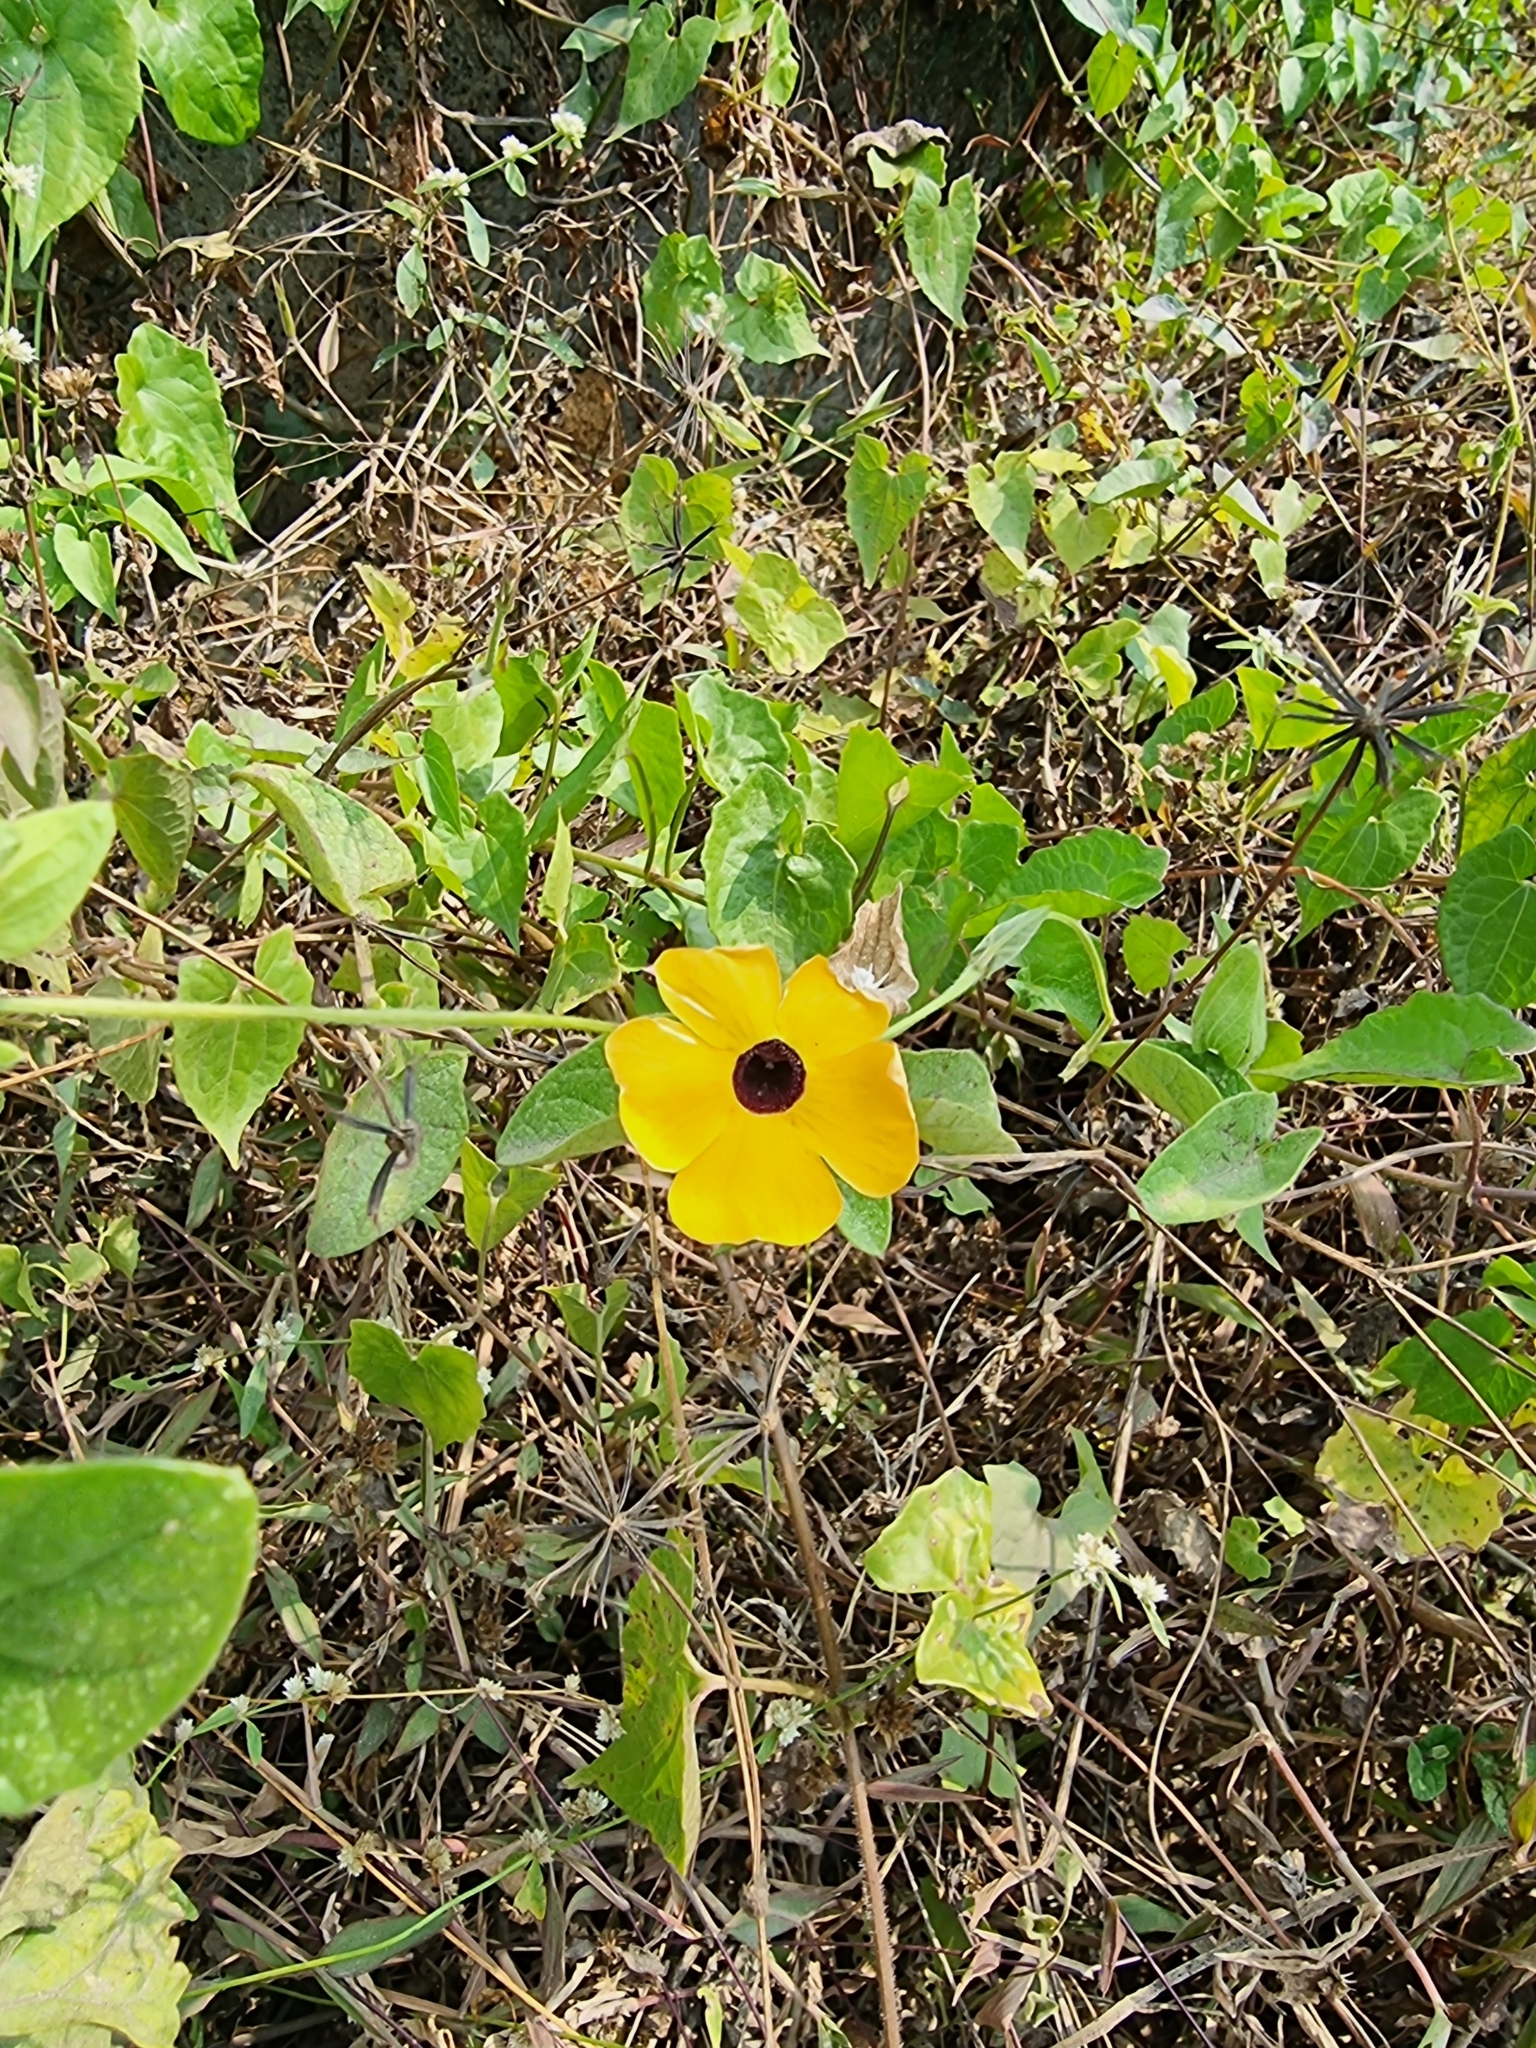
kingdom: Plantae
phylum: Tracheophyta
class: Magnoliopsida
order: Lamiales
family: Acanthaceae
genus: Thunbergia
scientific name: Thunbergia alata
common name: Blackeyed susan vine
